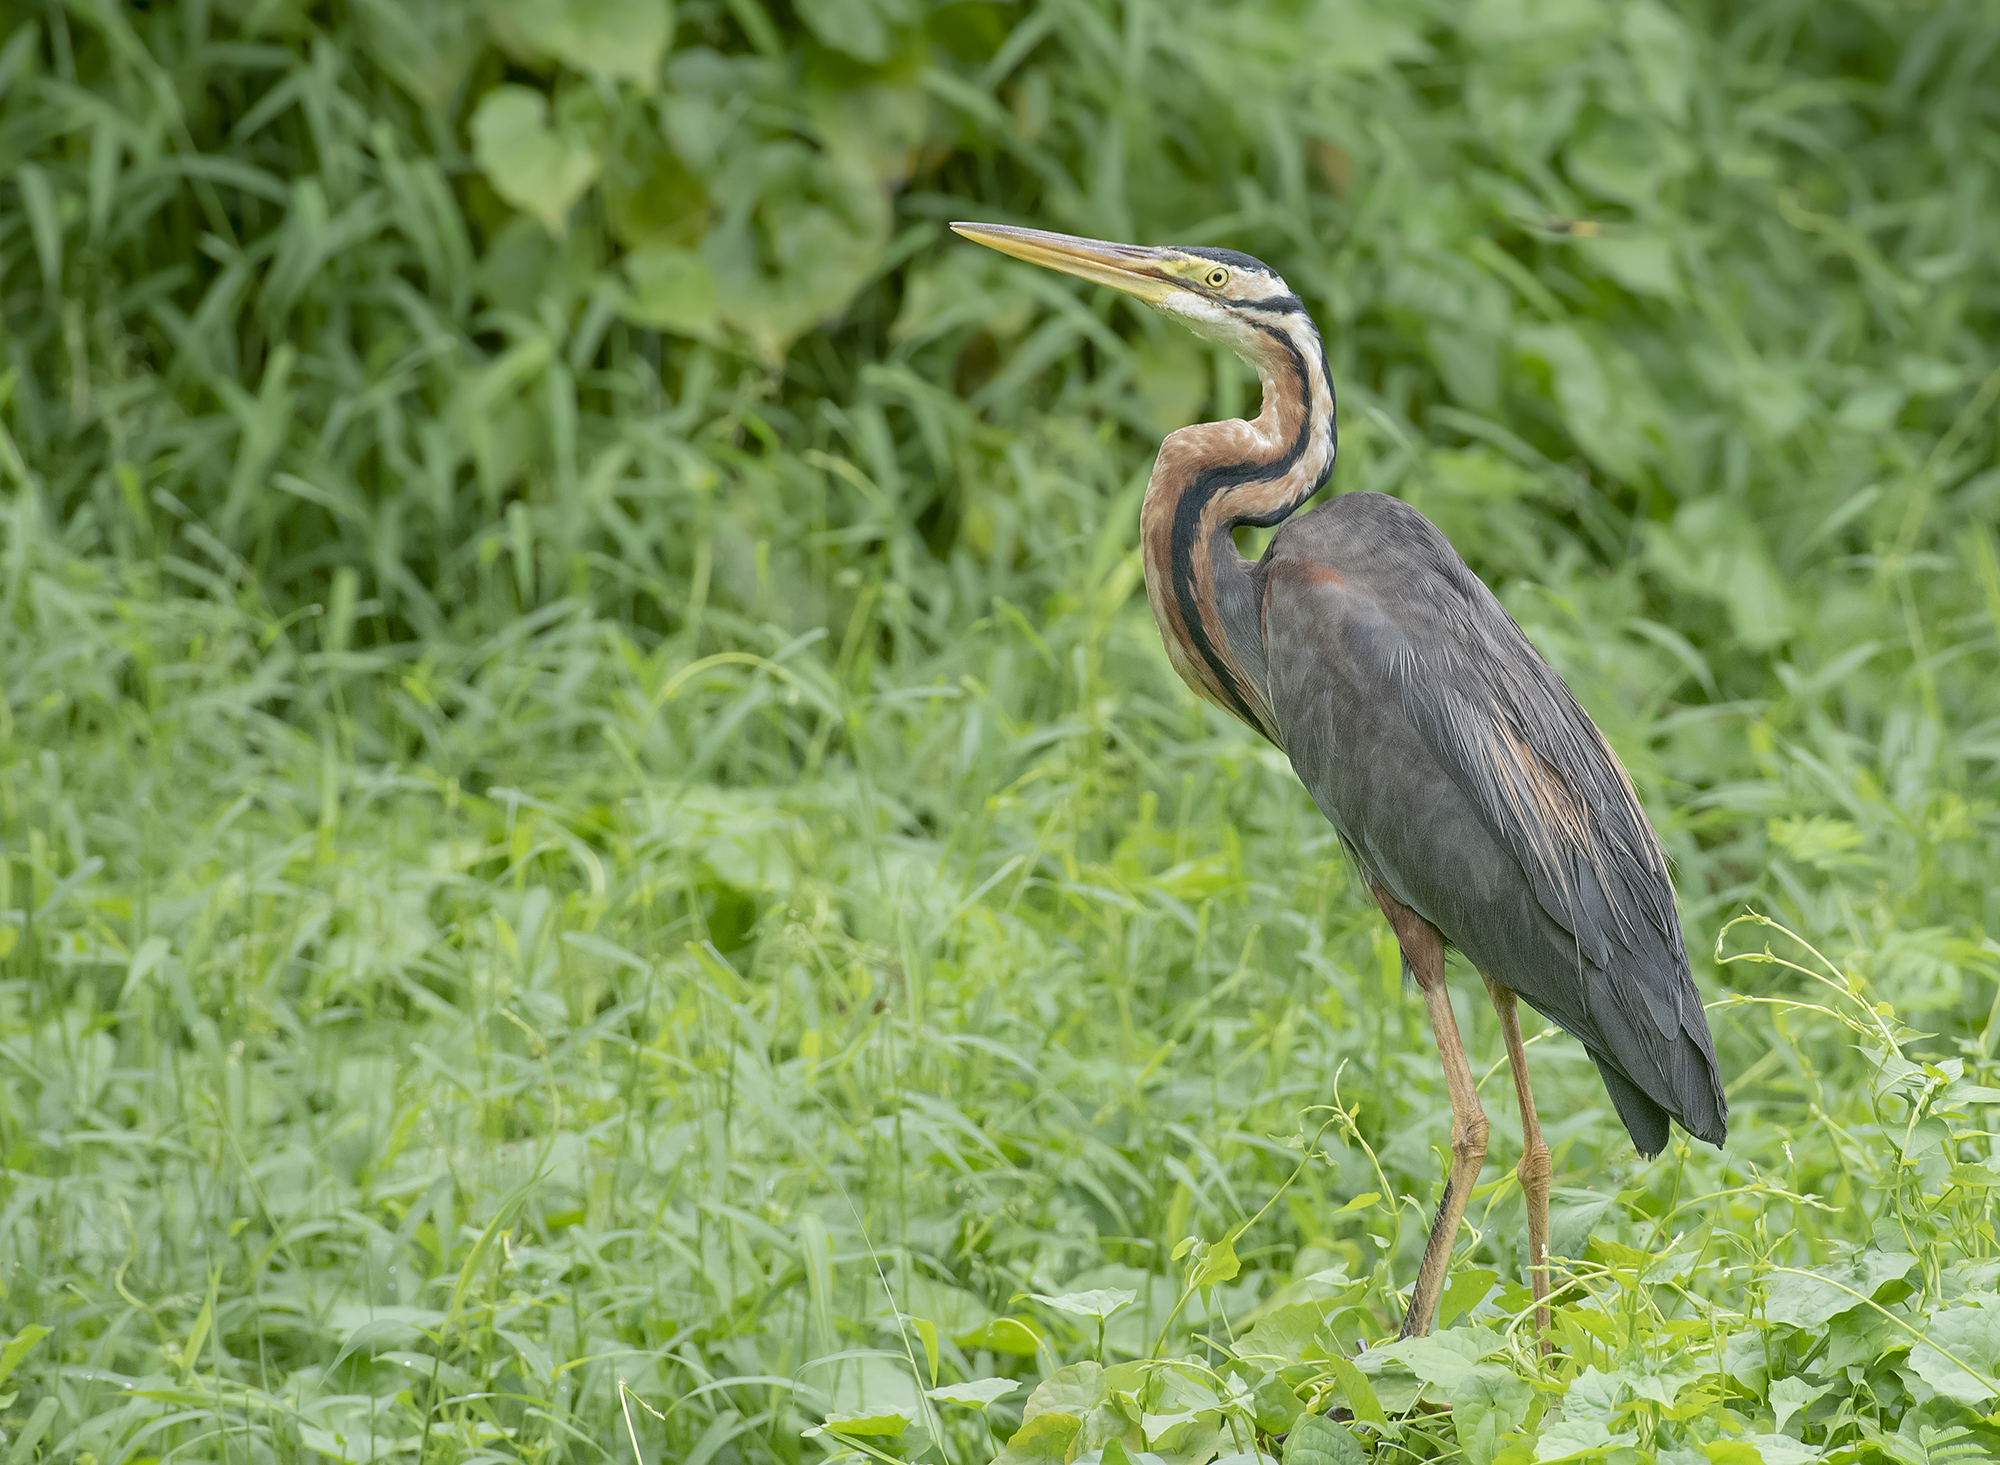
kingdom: Animalia
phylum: Chordata
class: Aves
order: Pelecaniformes
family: Ardeidae
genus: Ardea
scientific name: Ardea purpurea
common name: Purple heron
